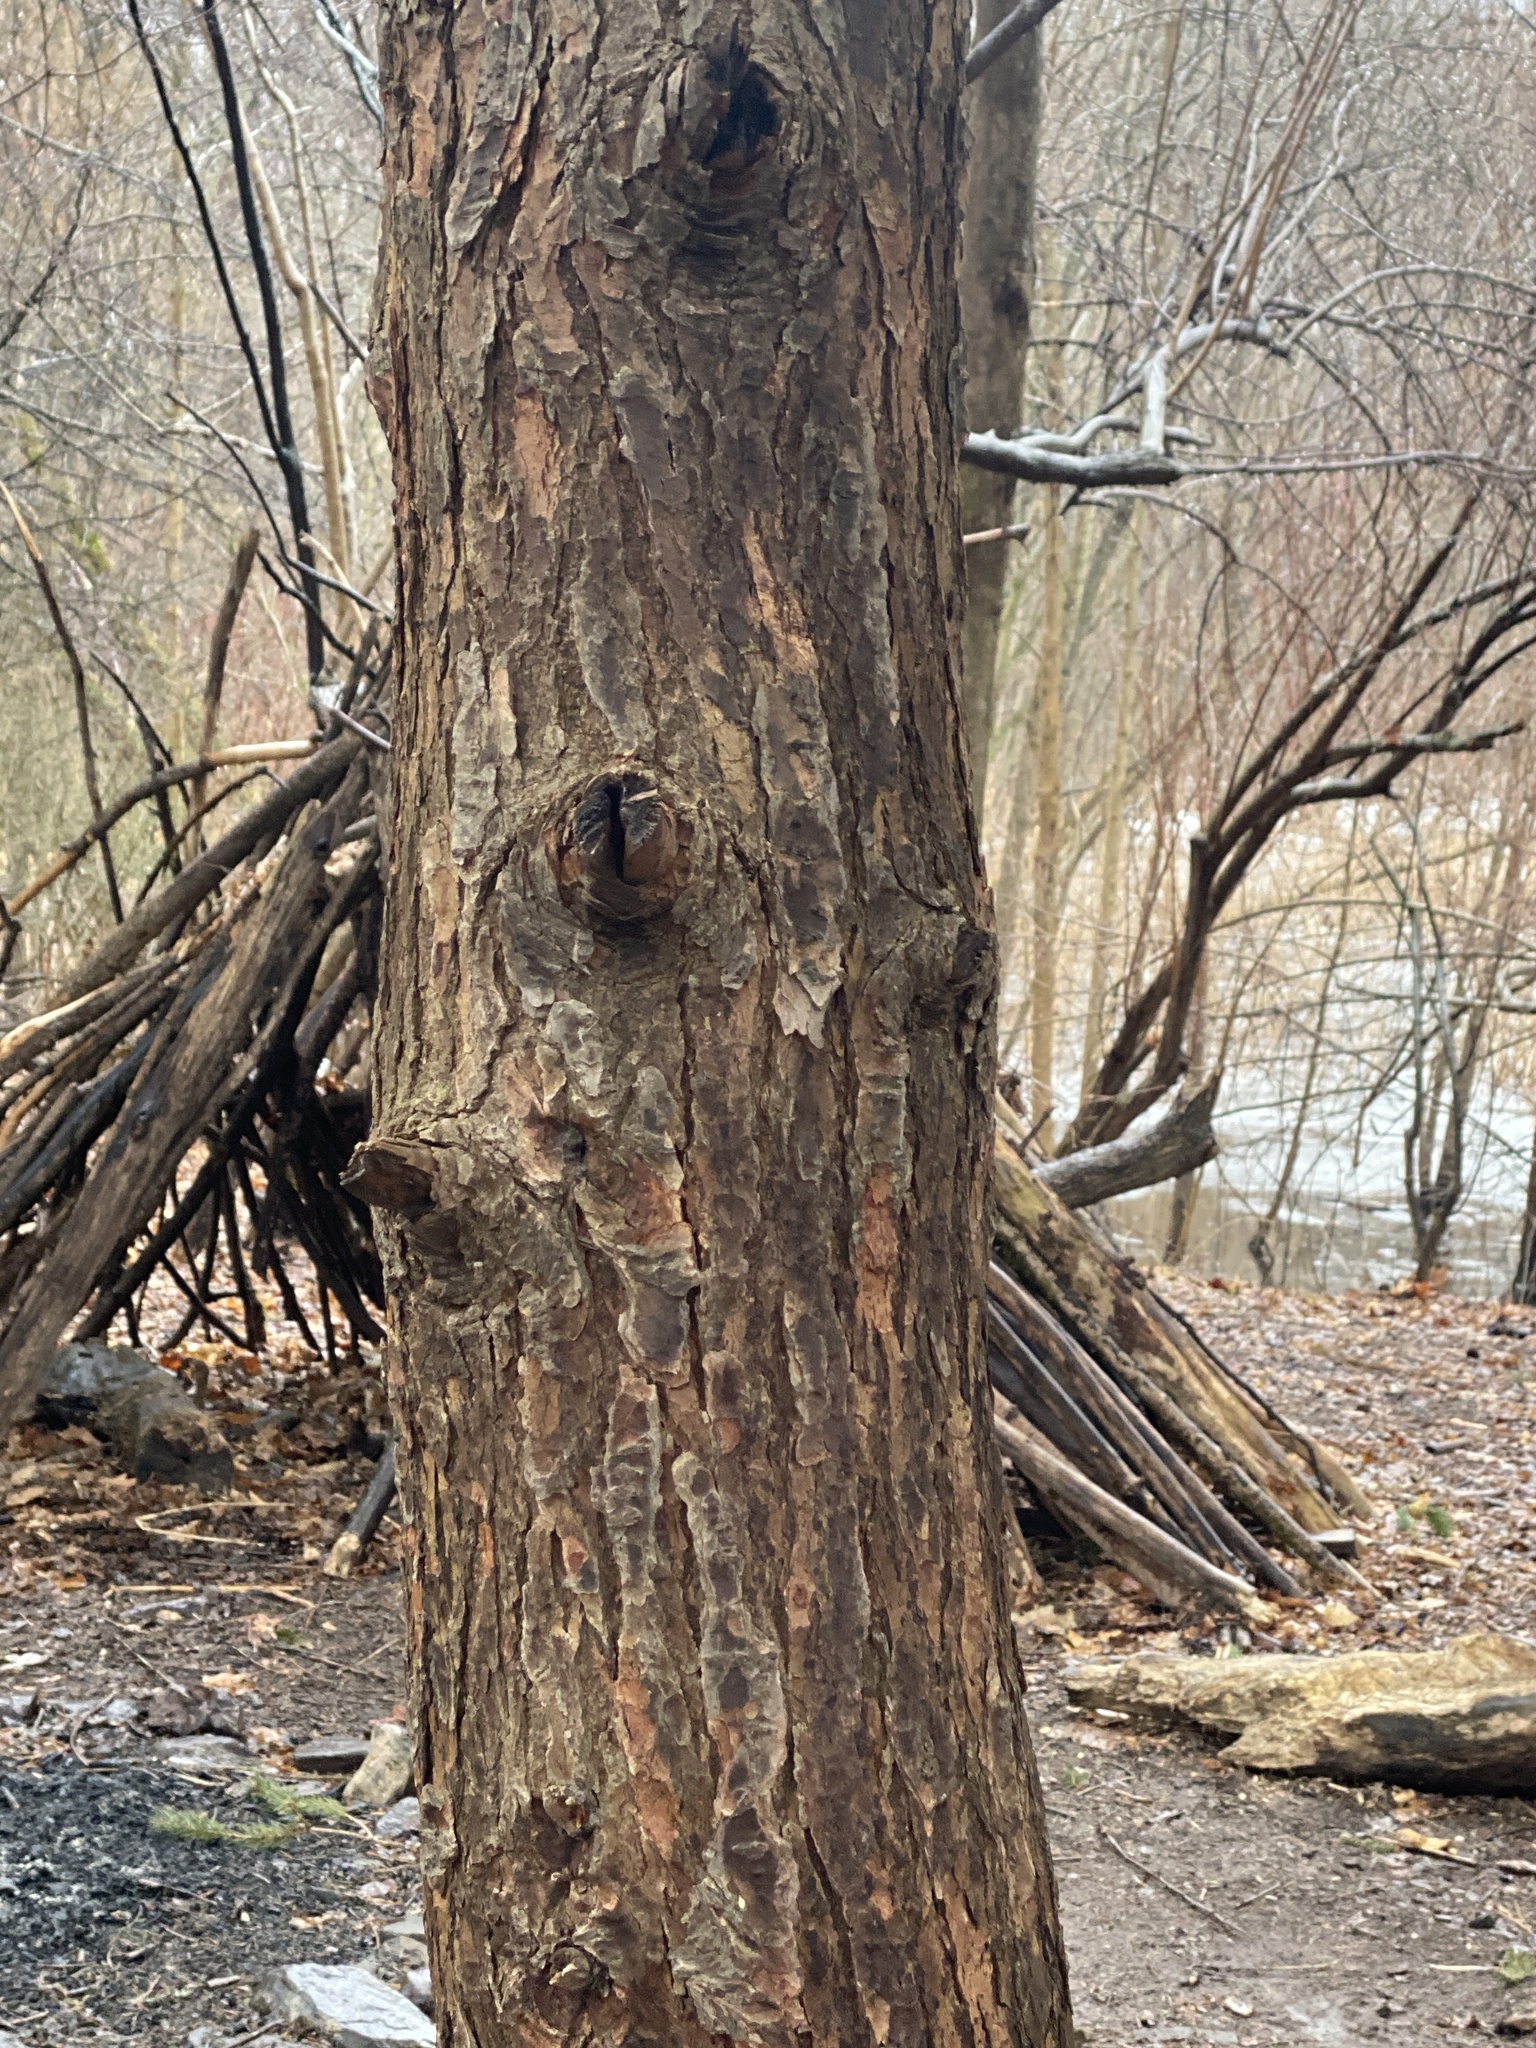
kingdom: Plantae
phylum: Tracheophyta
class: Pinopsida
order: Pinales
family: Pinaceae
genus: Tsuga
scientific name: Tsuga canadensis
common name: Eastern hemlock
